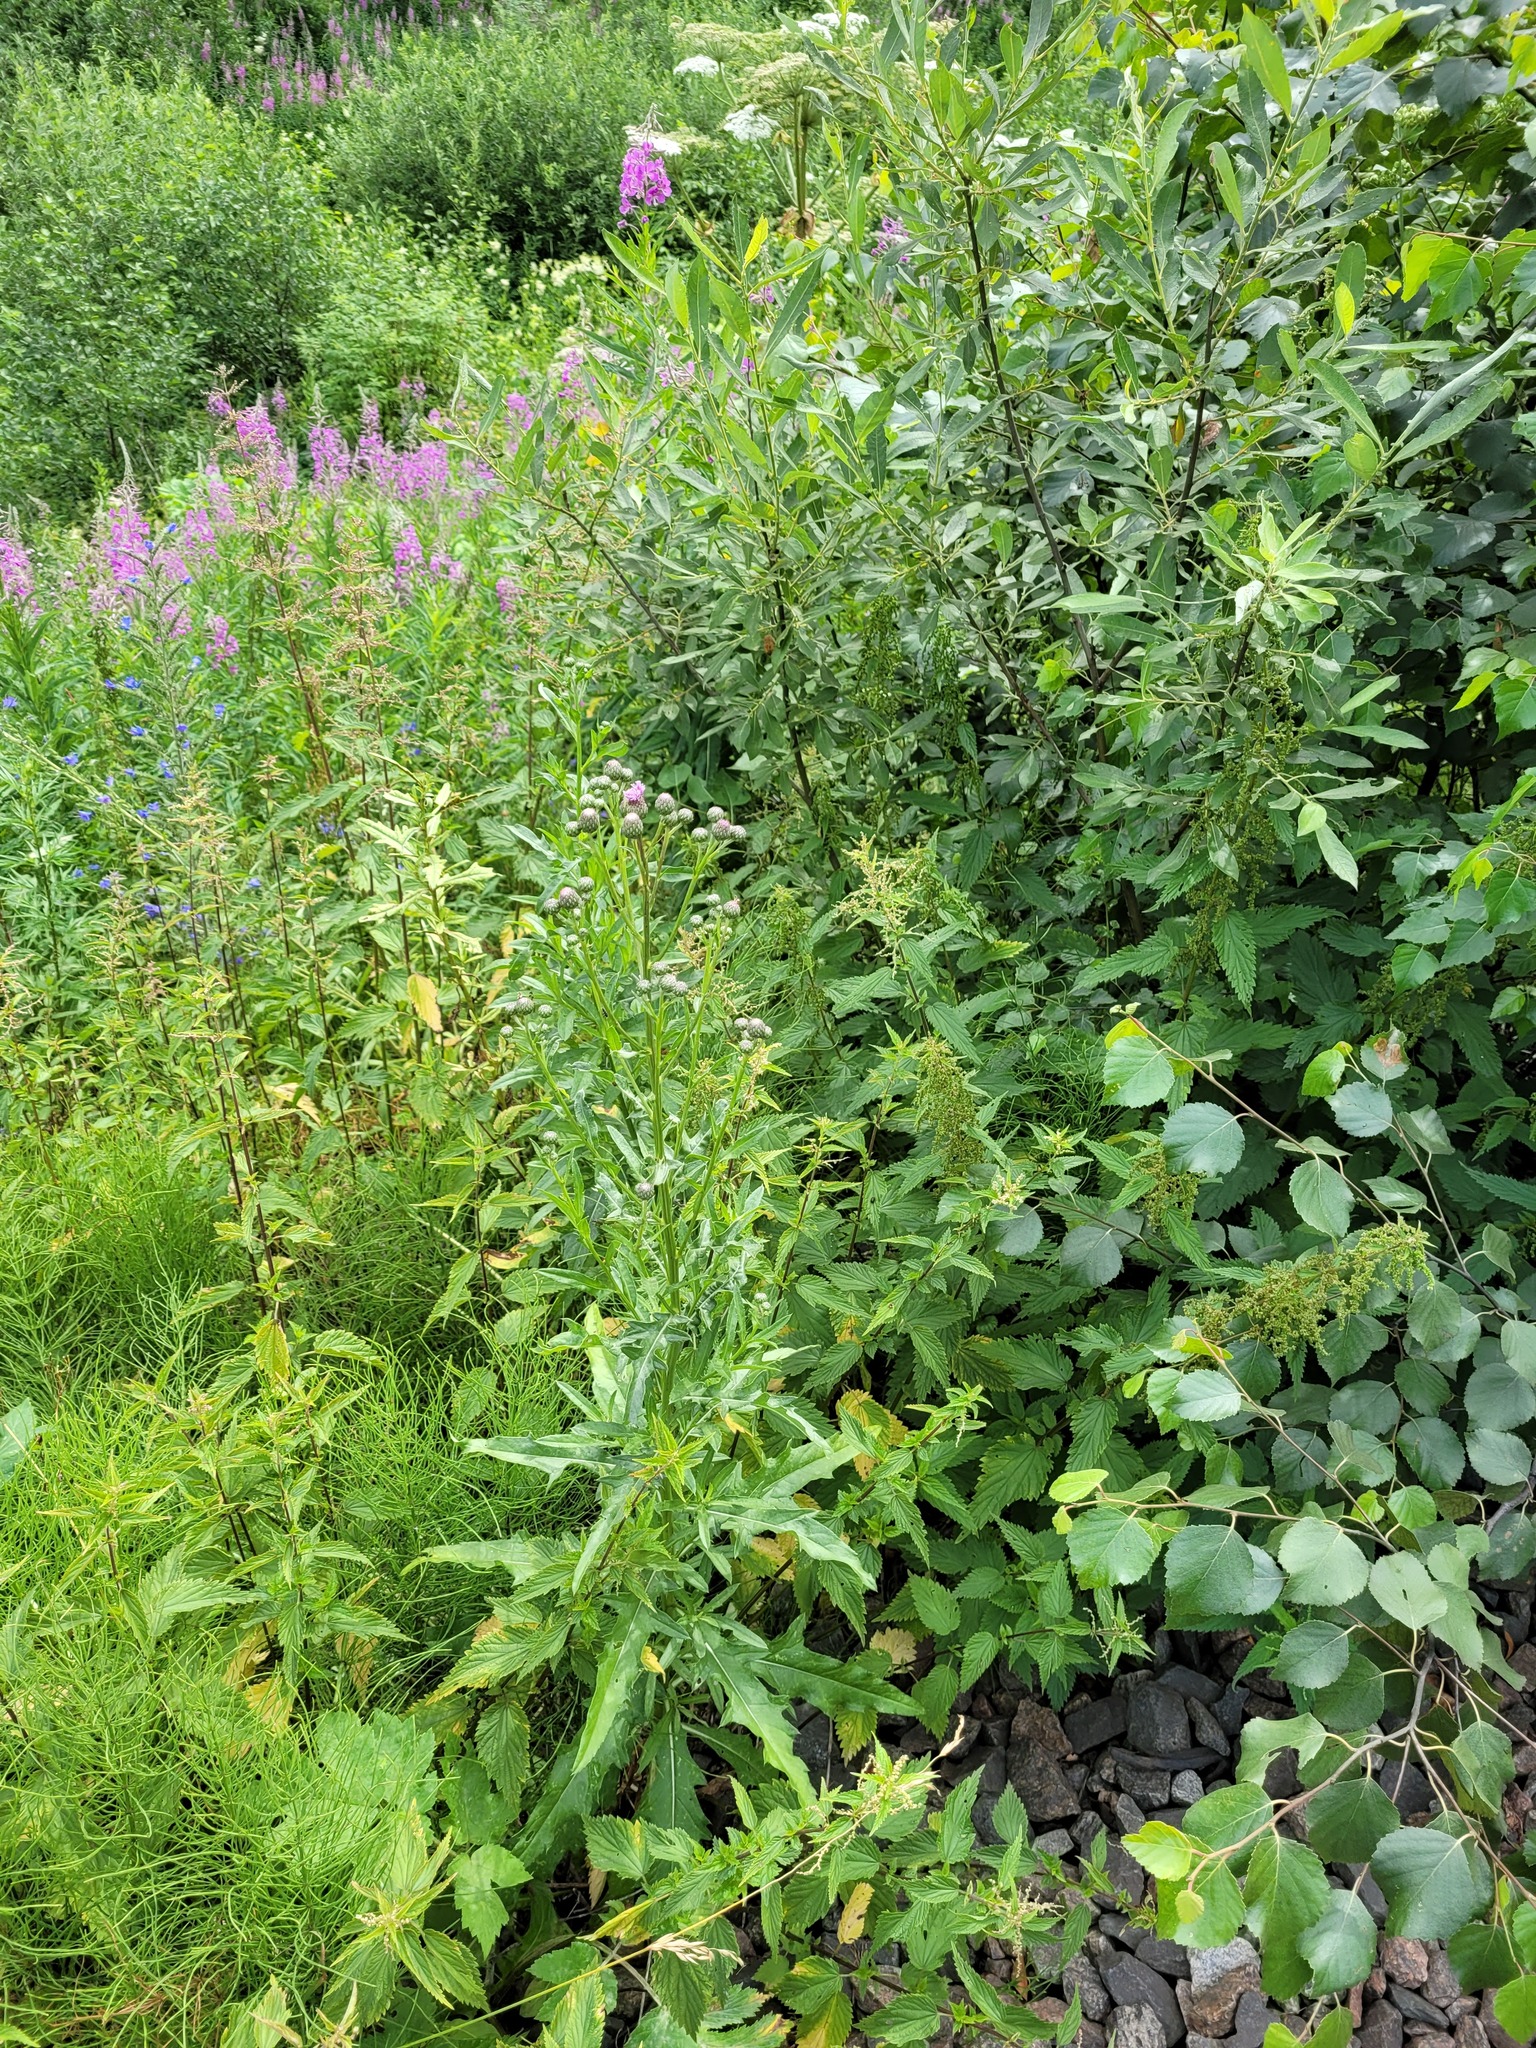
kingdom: Plantae
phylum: Tracheophyta
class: Magnoliopsida
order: Asterales
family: Asteraceae
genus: Cirsium
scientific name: Cirsium arvense
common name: Creeping thistle
